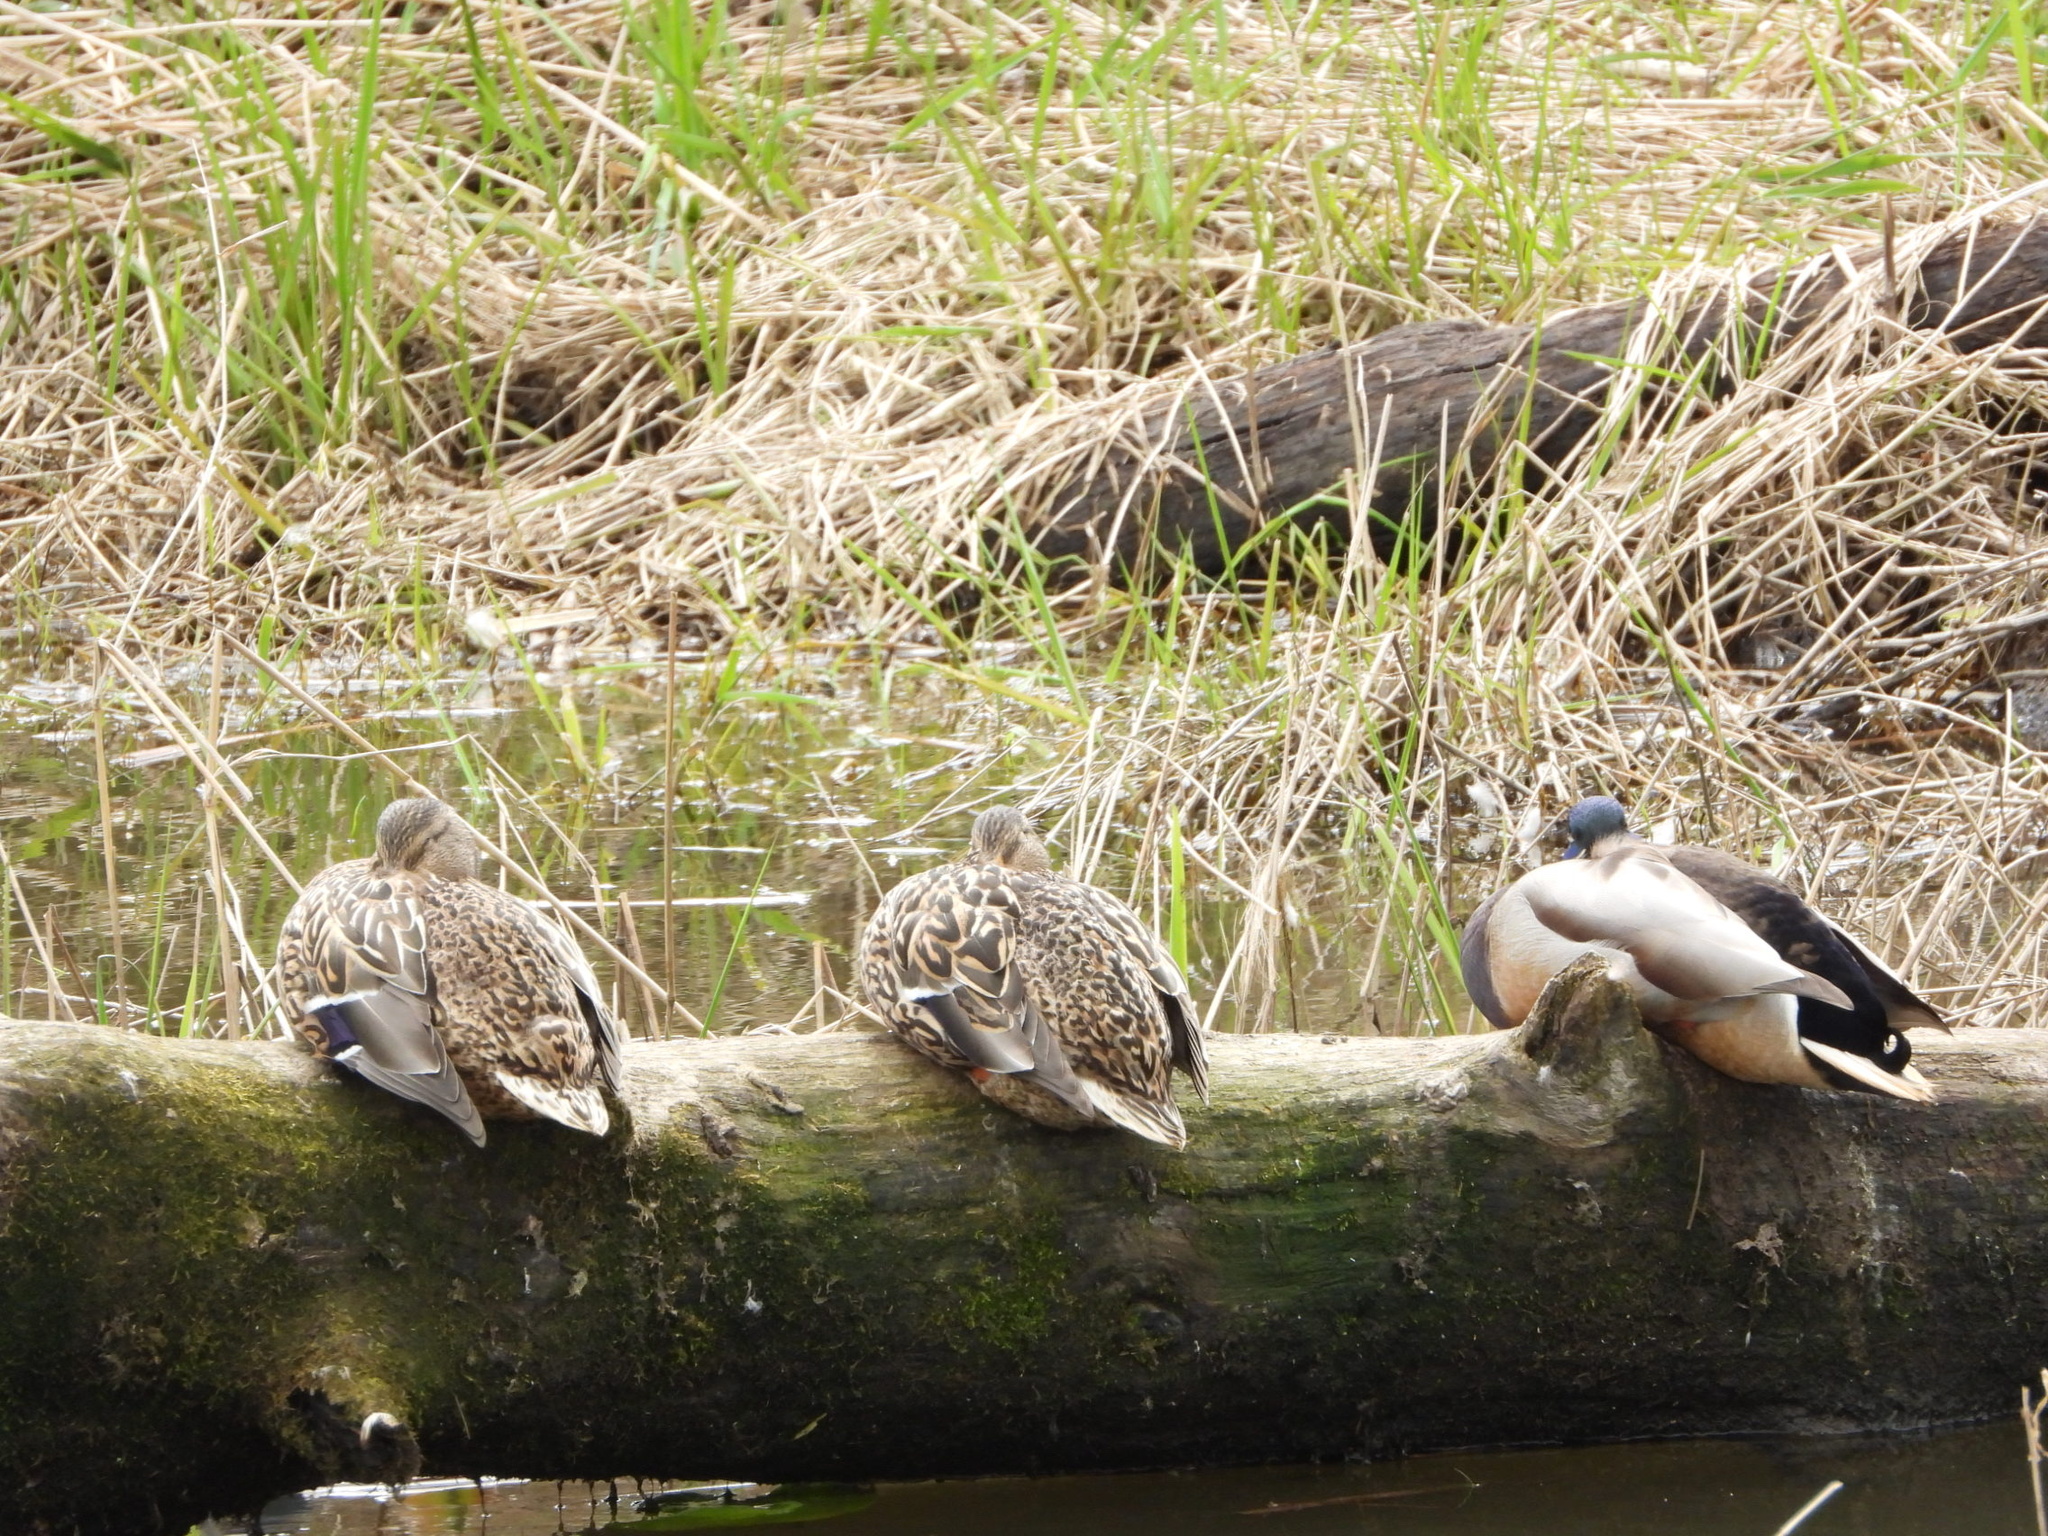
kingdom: Animalia
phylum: Chordata
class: Aves
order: Anseriformes
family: Anatidae
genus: Anas
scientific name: Anas platyrhynchos
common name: Mallard
